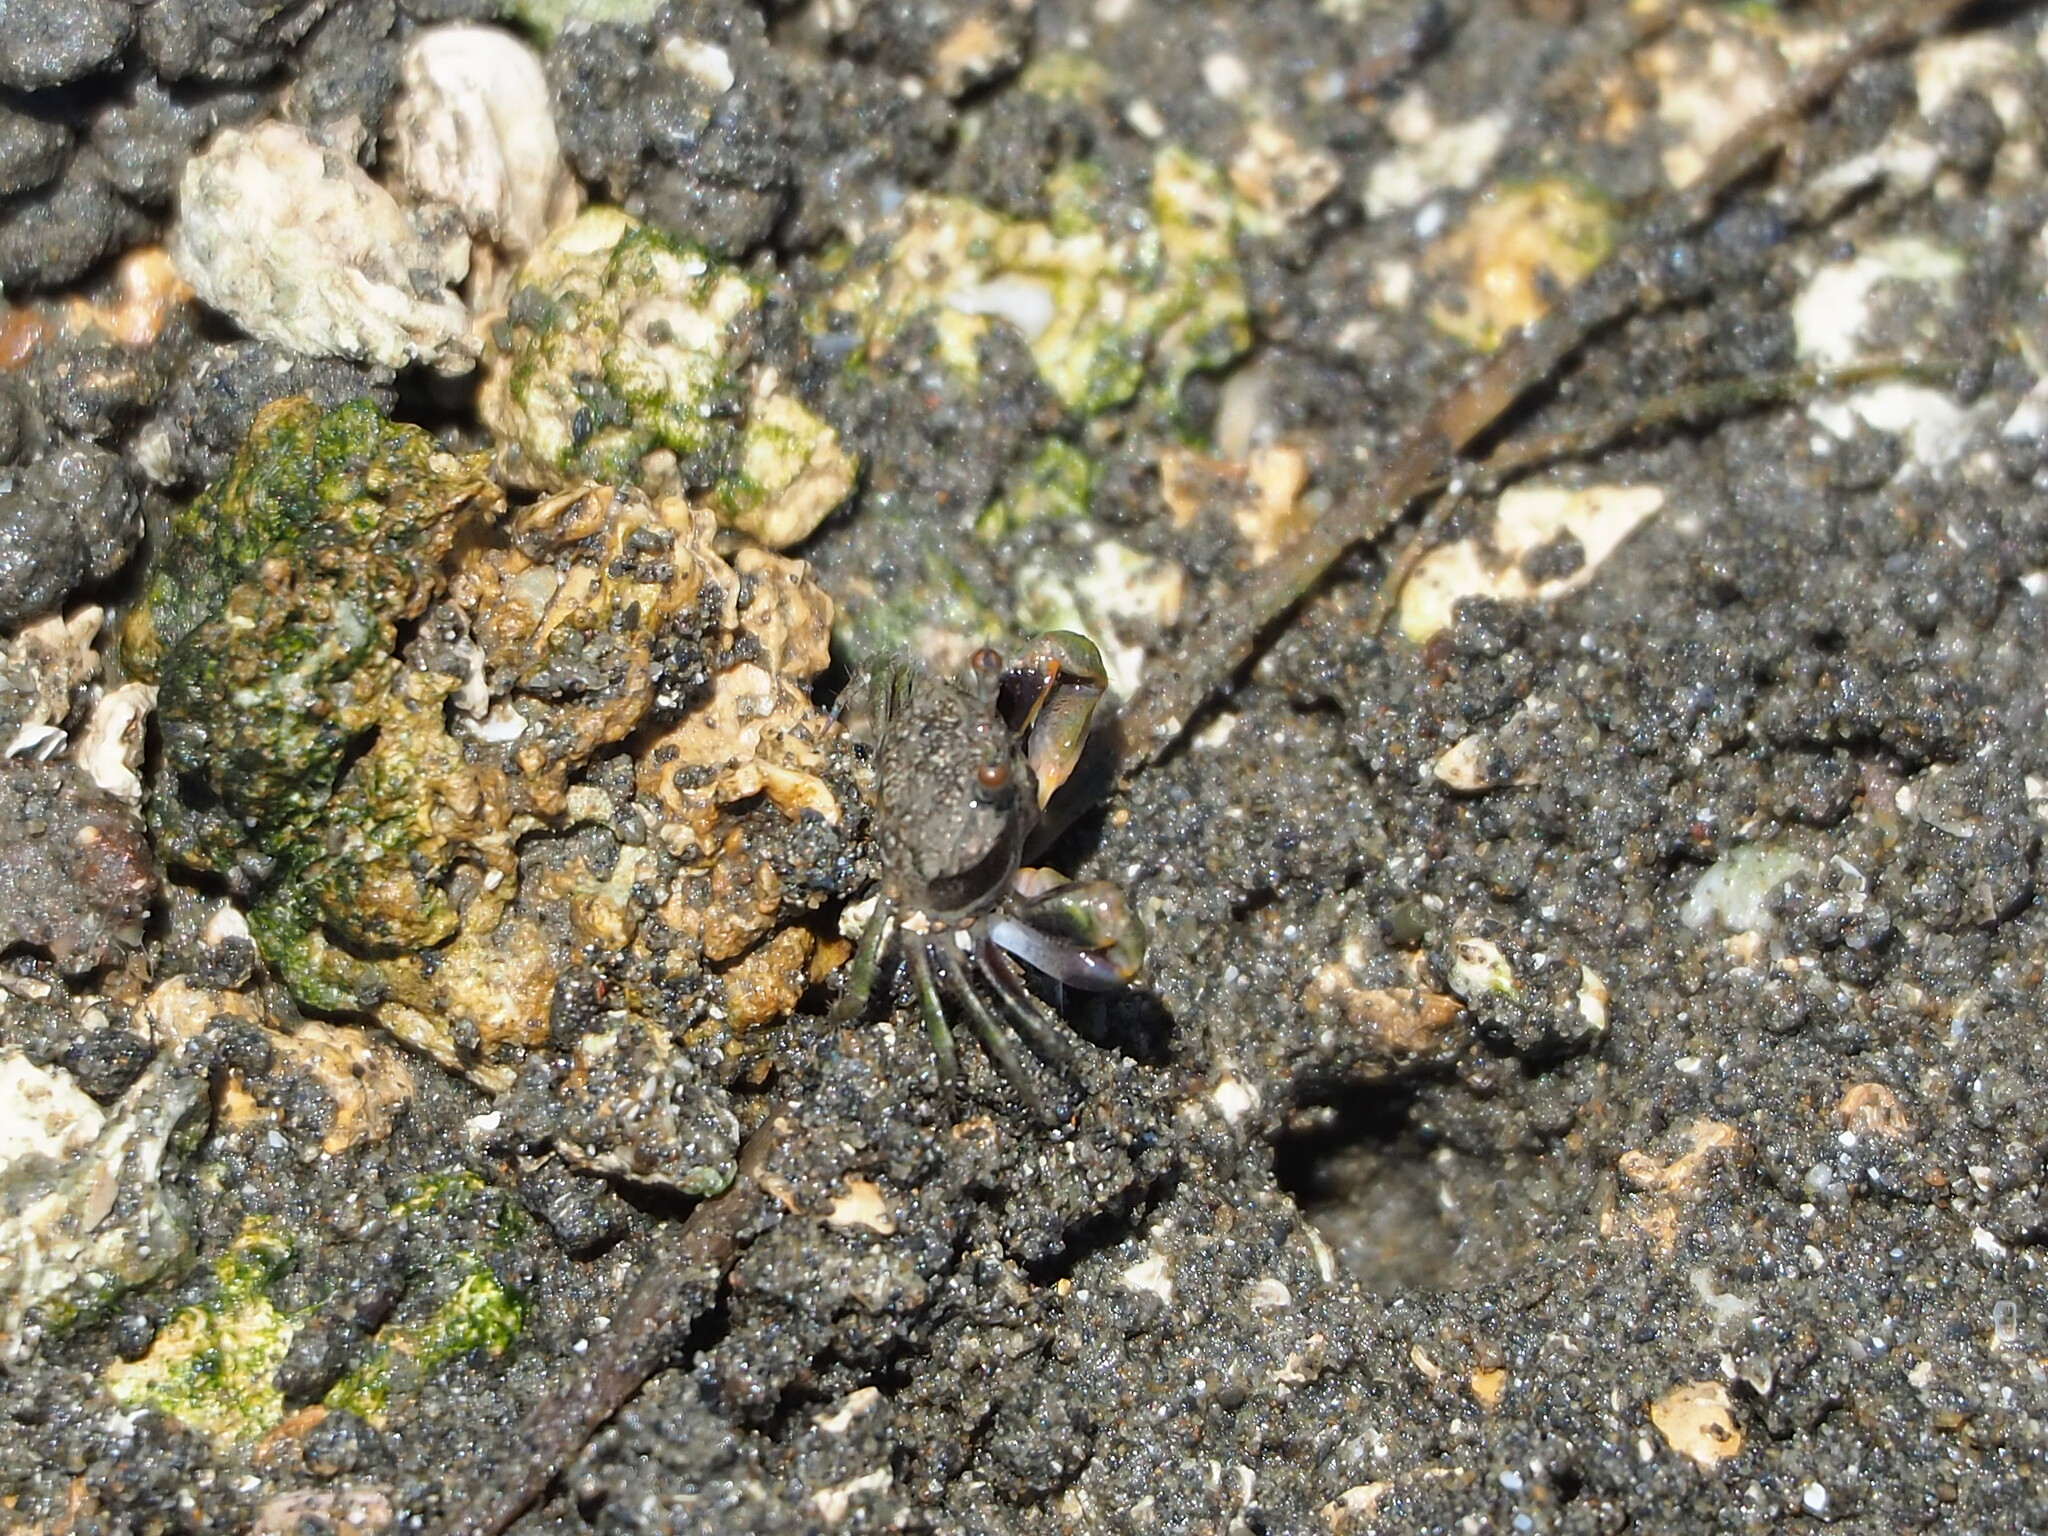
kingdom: Animalia
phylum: Arthropoda
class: Malacostraca
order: Decapoda
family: Dotillidae
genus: Tmethypocoelis
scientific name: Tmethypocoelis ceratophora
